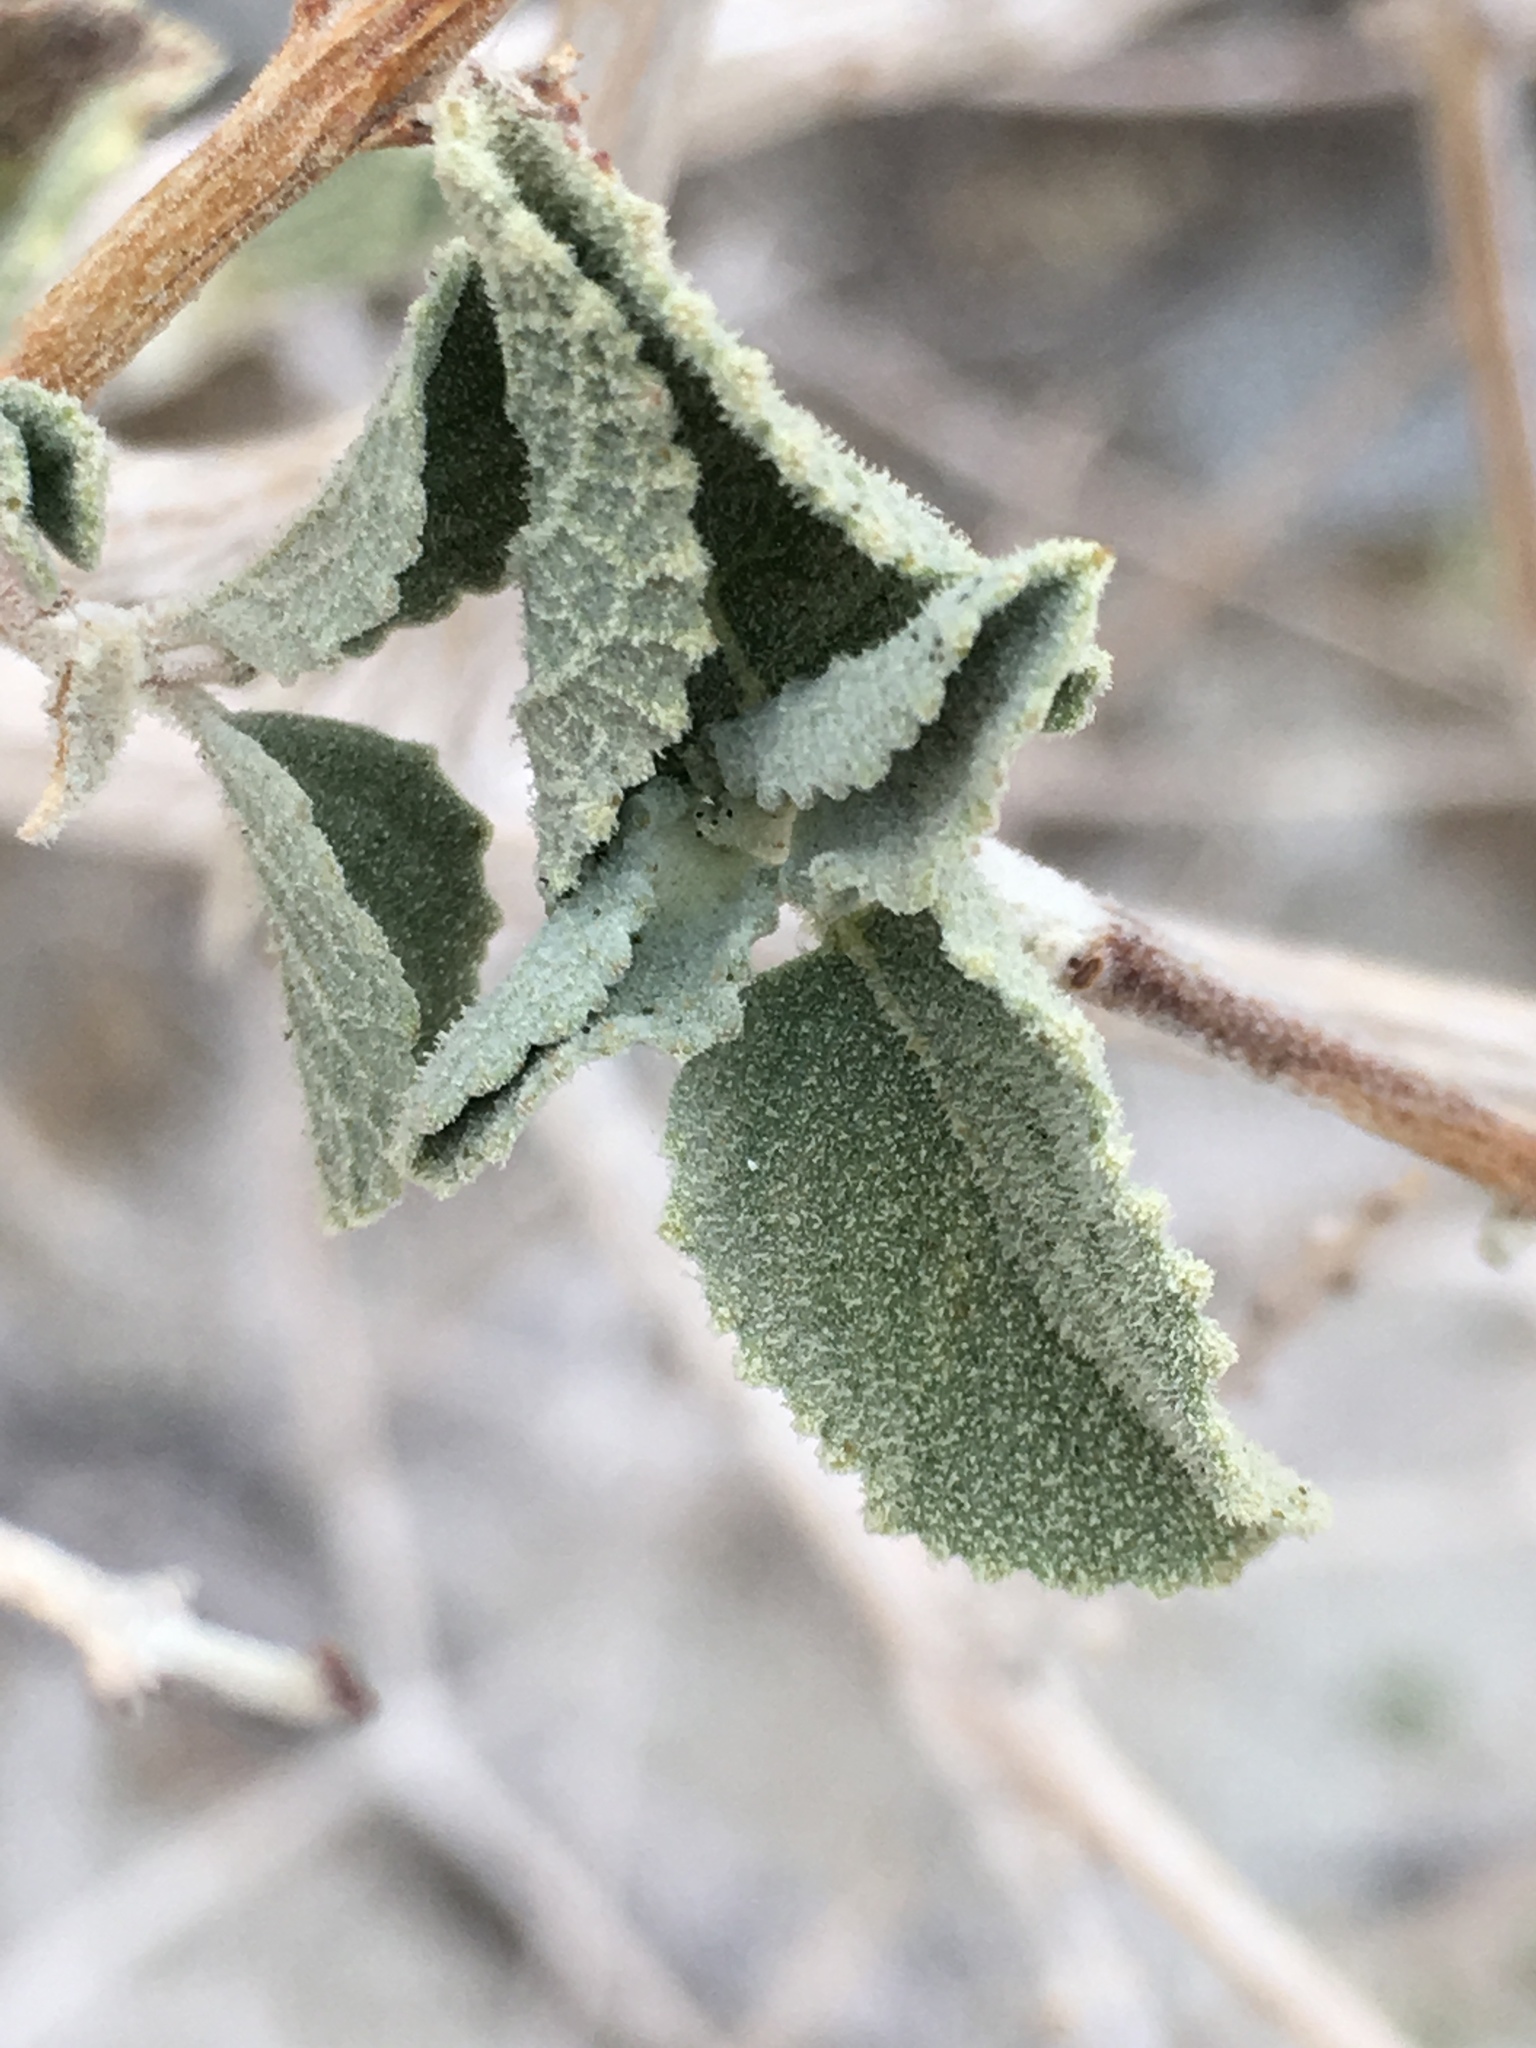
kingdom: Plantae
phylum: Tracheophyta
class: Magnoliopsida
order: Lamiales
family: Lamiaceae
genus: Condea
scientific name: Condea emoryi
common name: Chia
